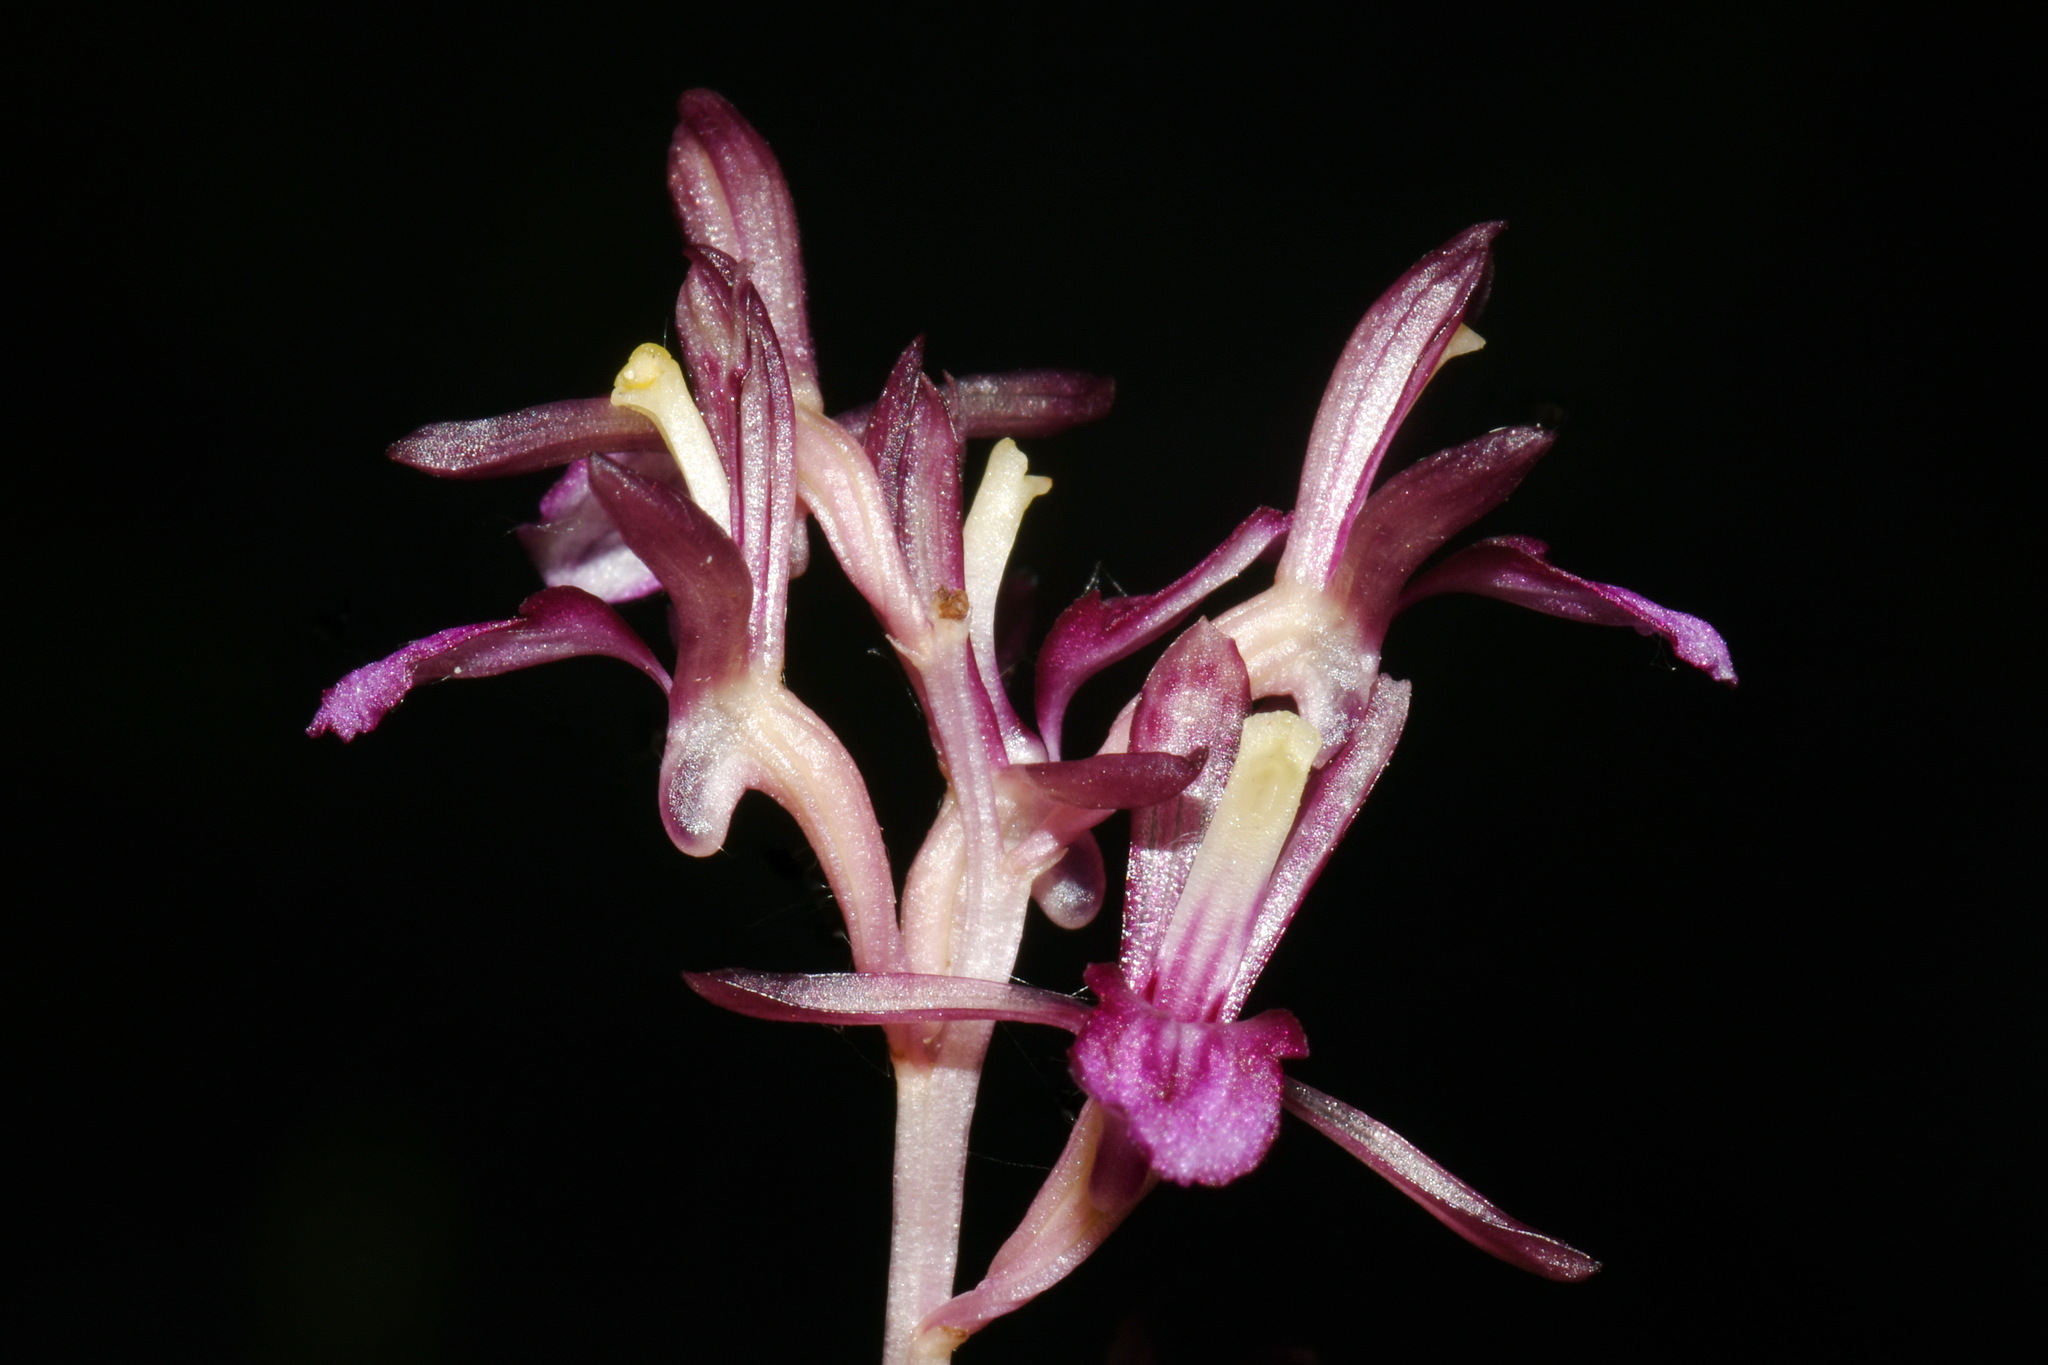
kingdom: Plantae
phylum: Tracheophyta
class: Liliopsida
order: Asparagales
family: Orchidaceae
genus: Corallorhiza
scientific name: Corallorhiza mertensiana
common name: Pacific coralroot
